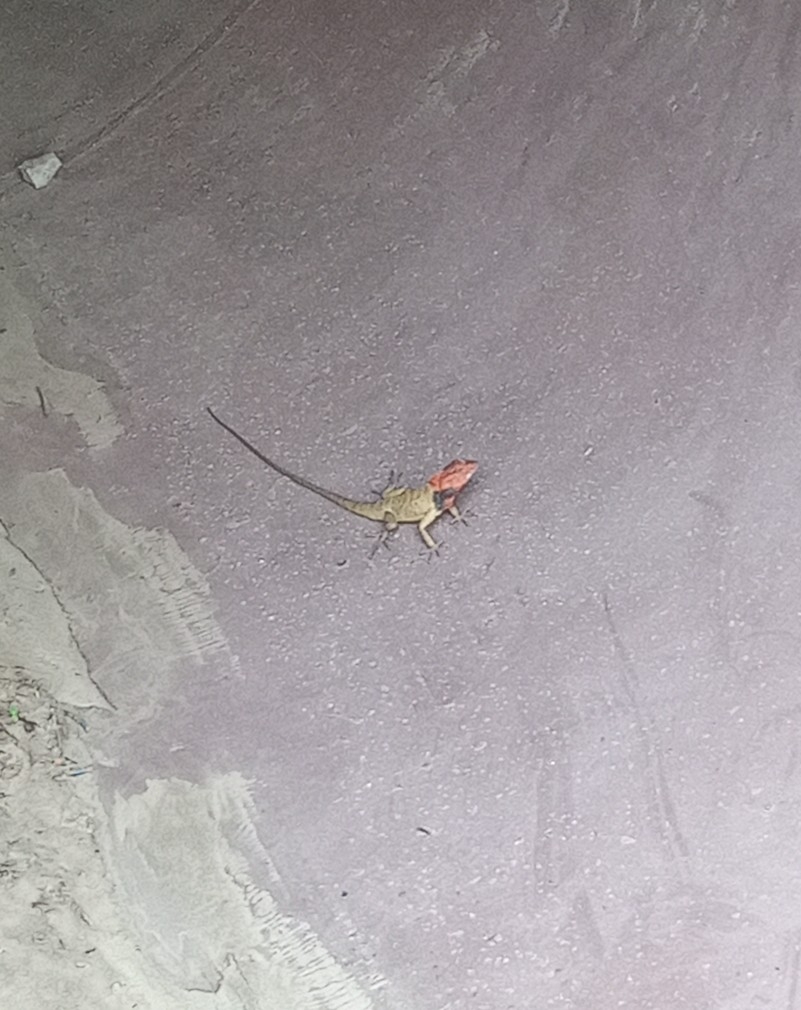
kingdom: Animalia
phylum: Chordata
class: Squamata
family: Agamidae
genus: Calotes
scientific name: Calotes versicolor
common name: Oriental garden lizard
